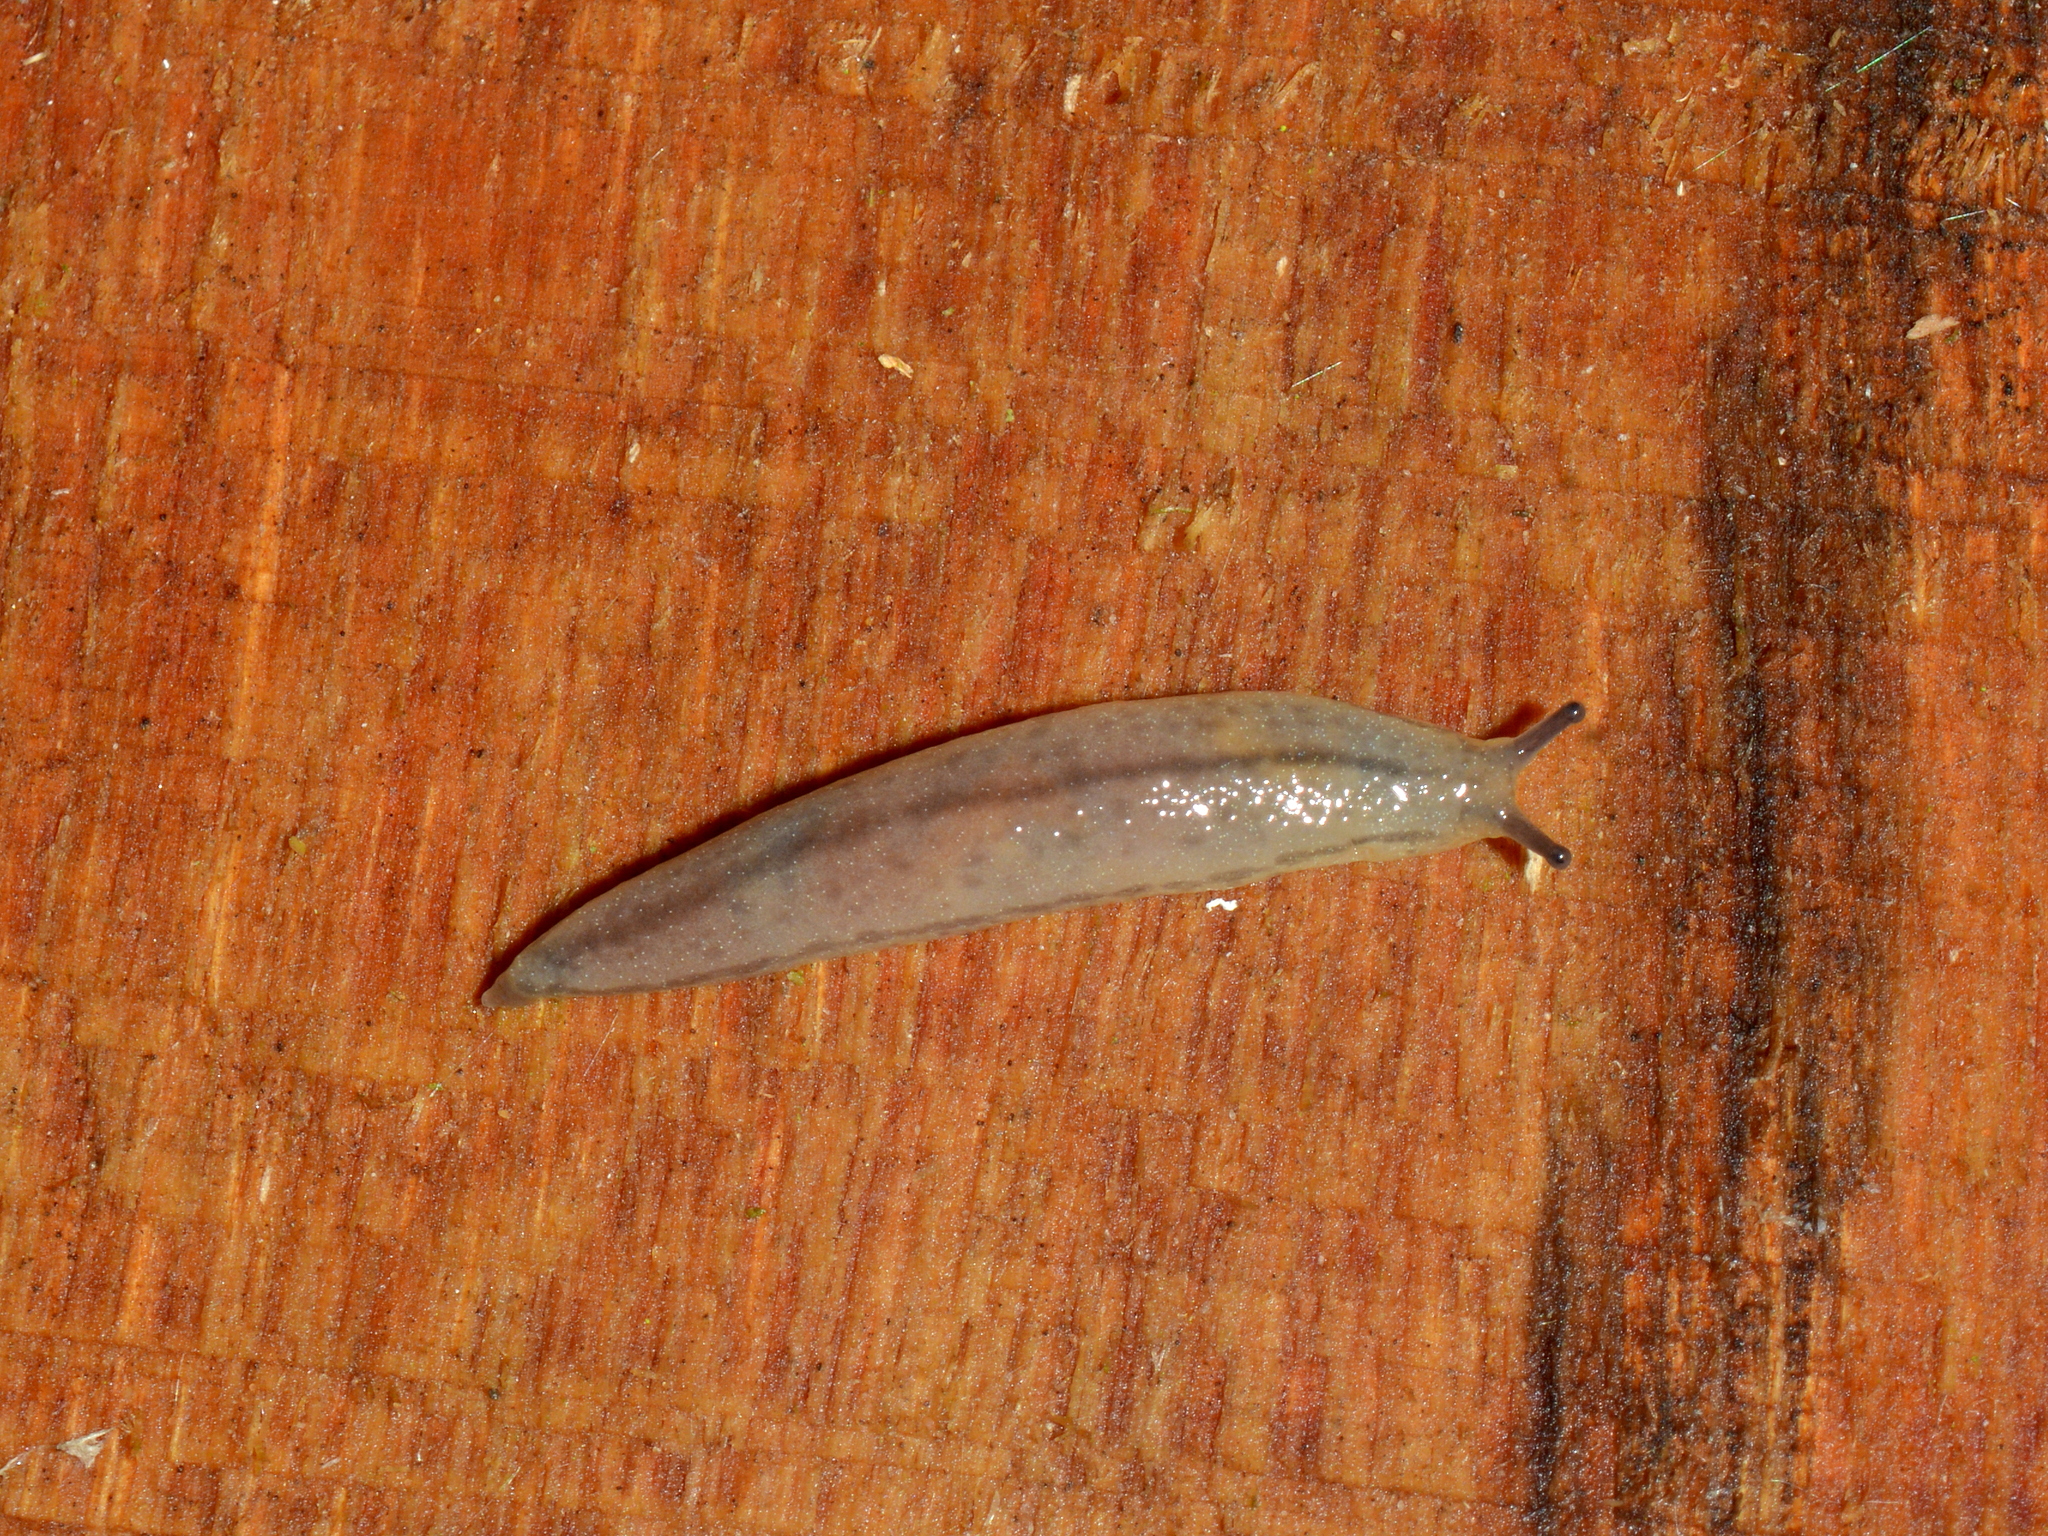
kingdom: Animalia
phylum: Mollusca
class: Gastropoda
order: Stylommatophora
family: Philomycidae
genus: Meghimatium
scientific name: Meghimatium pictum
